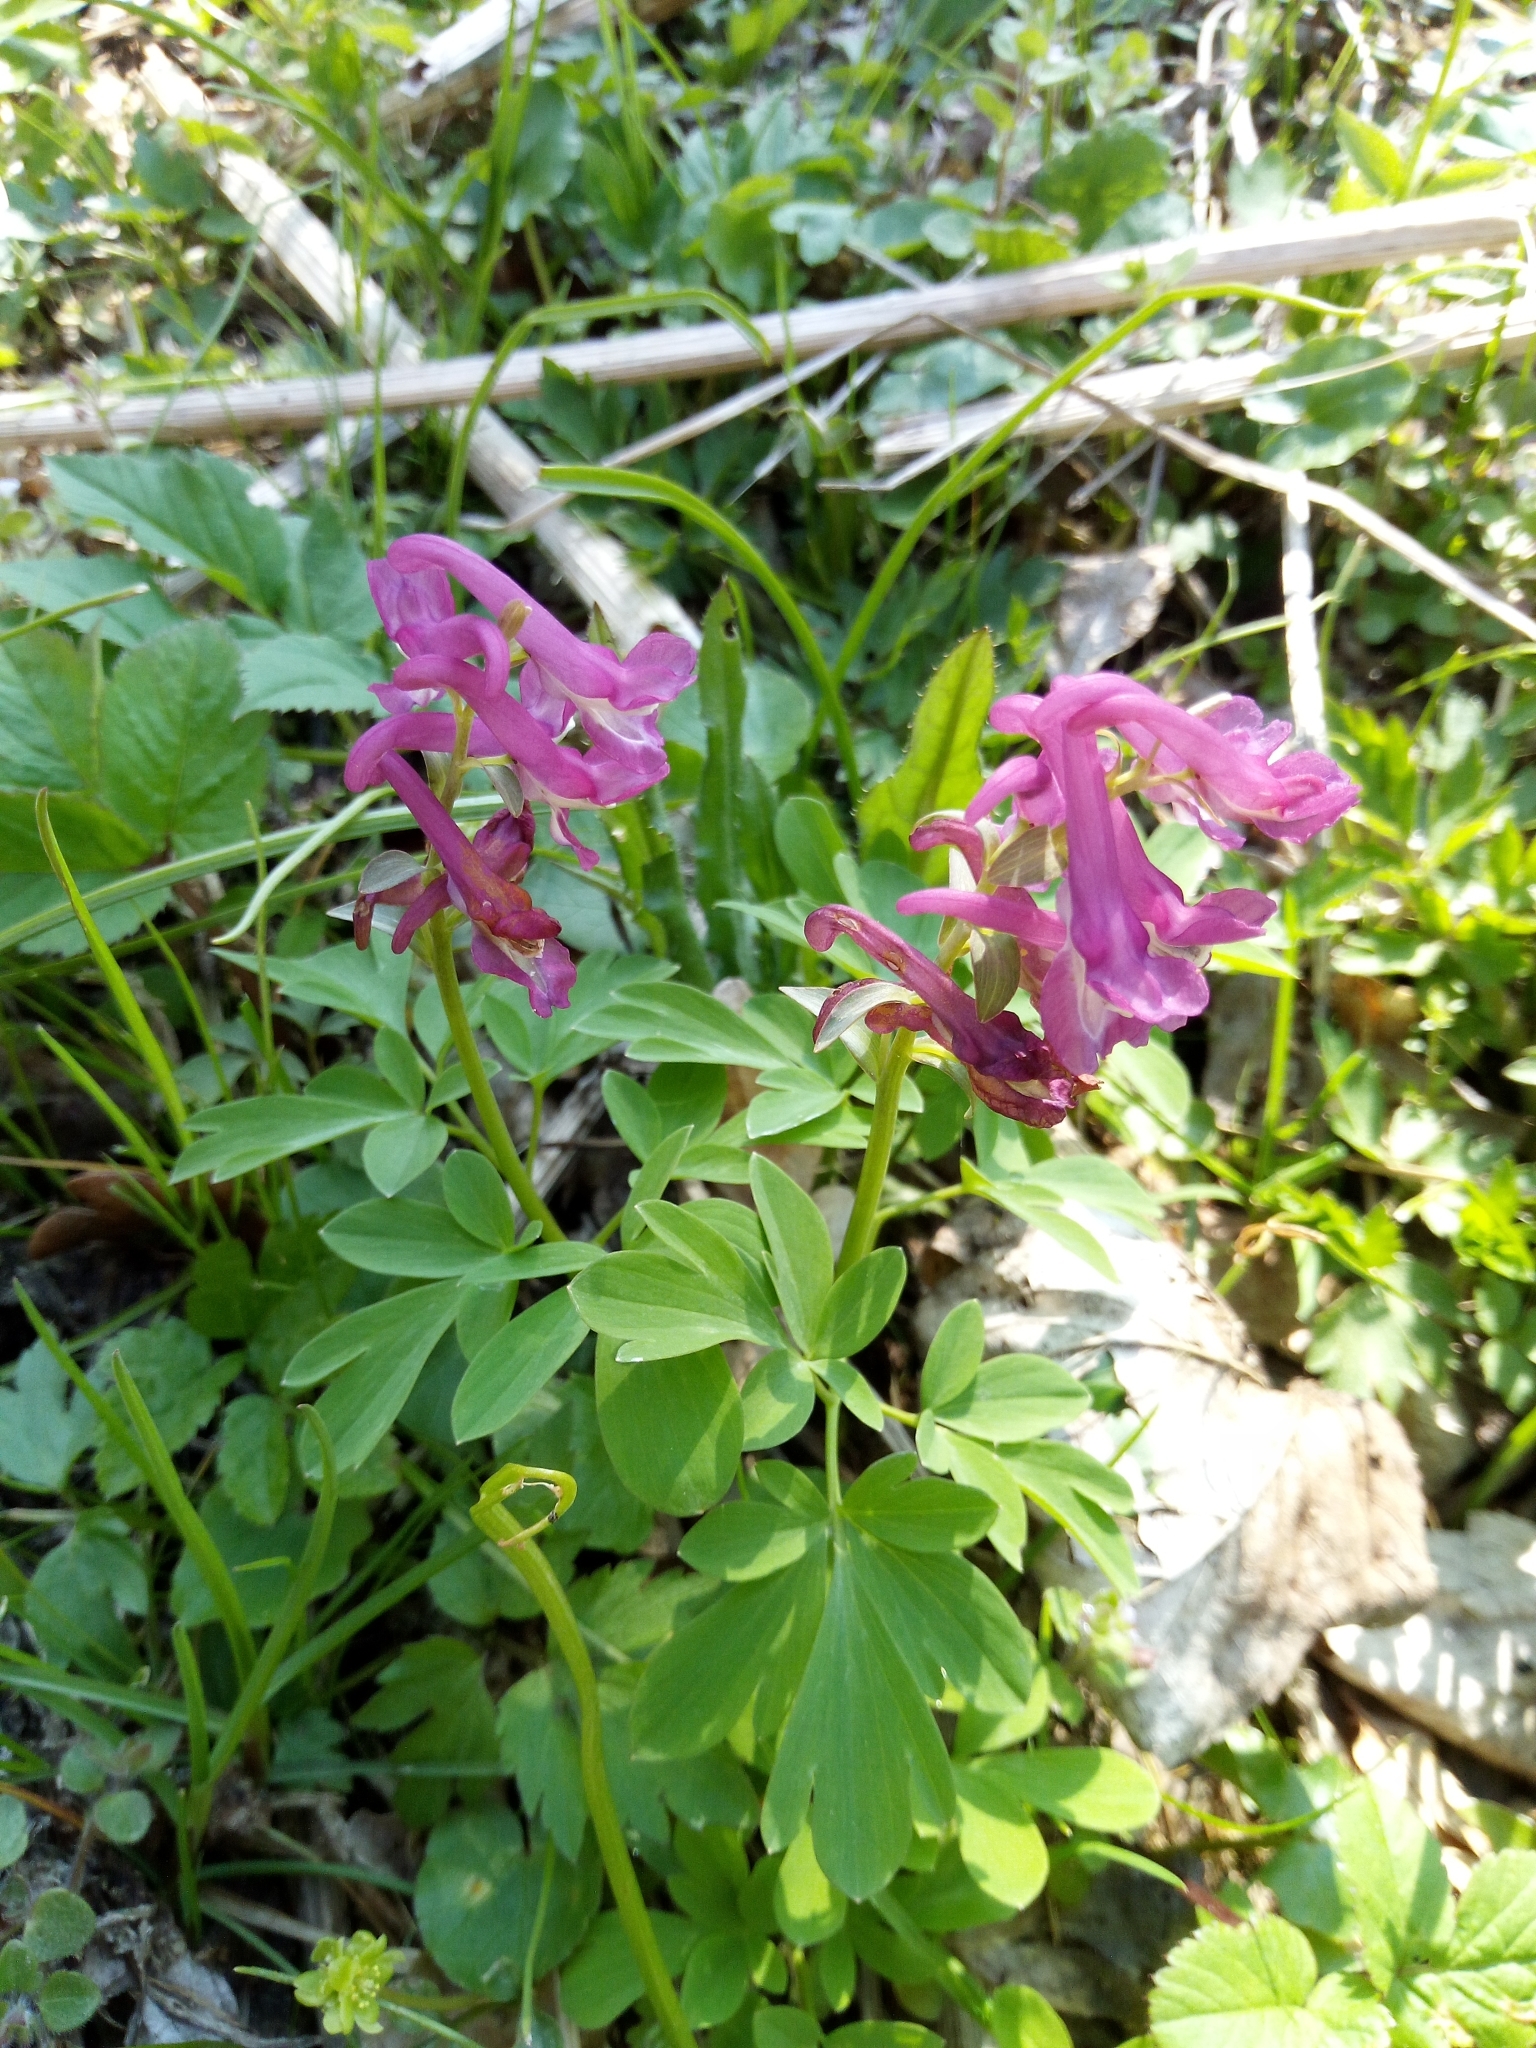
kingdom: Plantae
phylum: Tracheophyta
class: Magnoliopsida
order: Ranunculales
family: Papaveraceae
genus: Corydalis
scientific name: Corydalis cava
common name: Hollowroot
